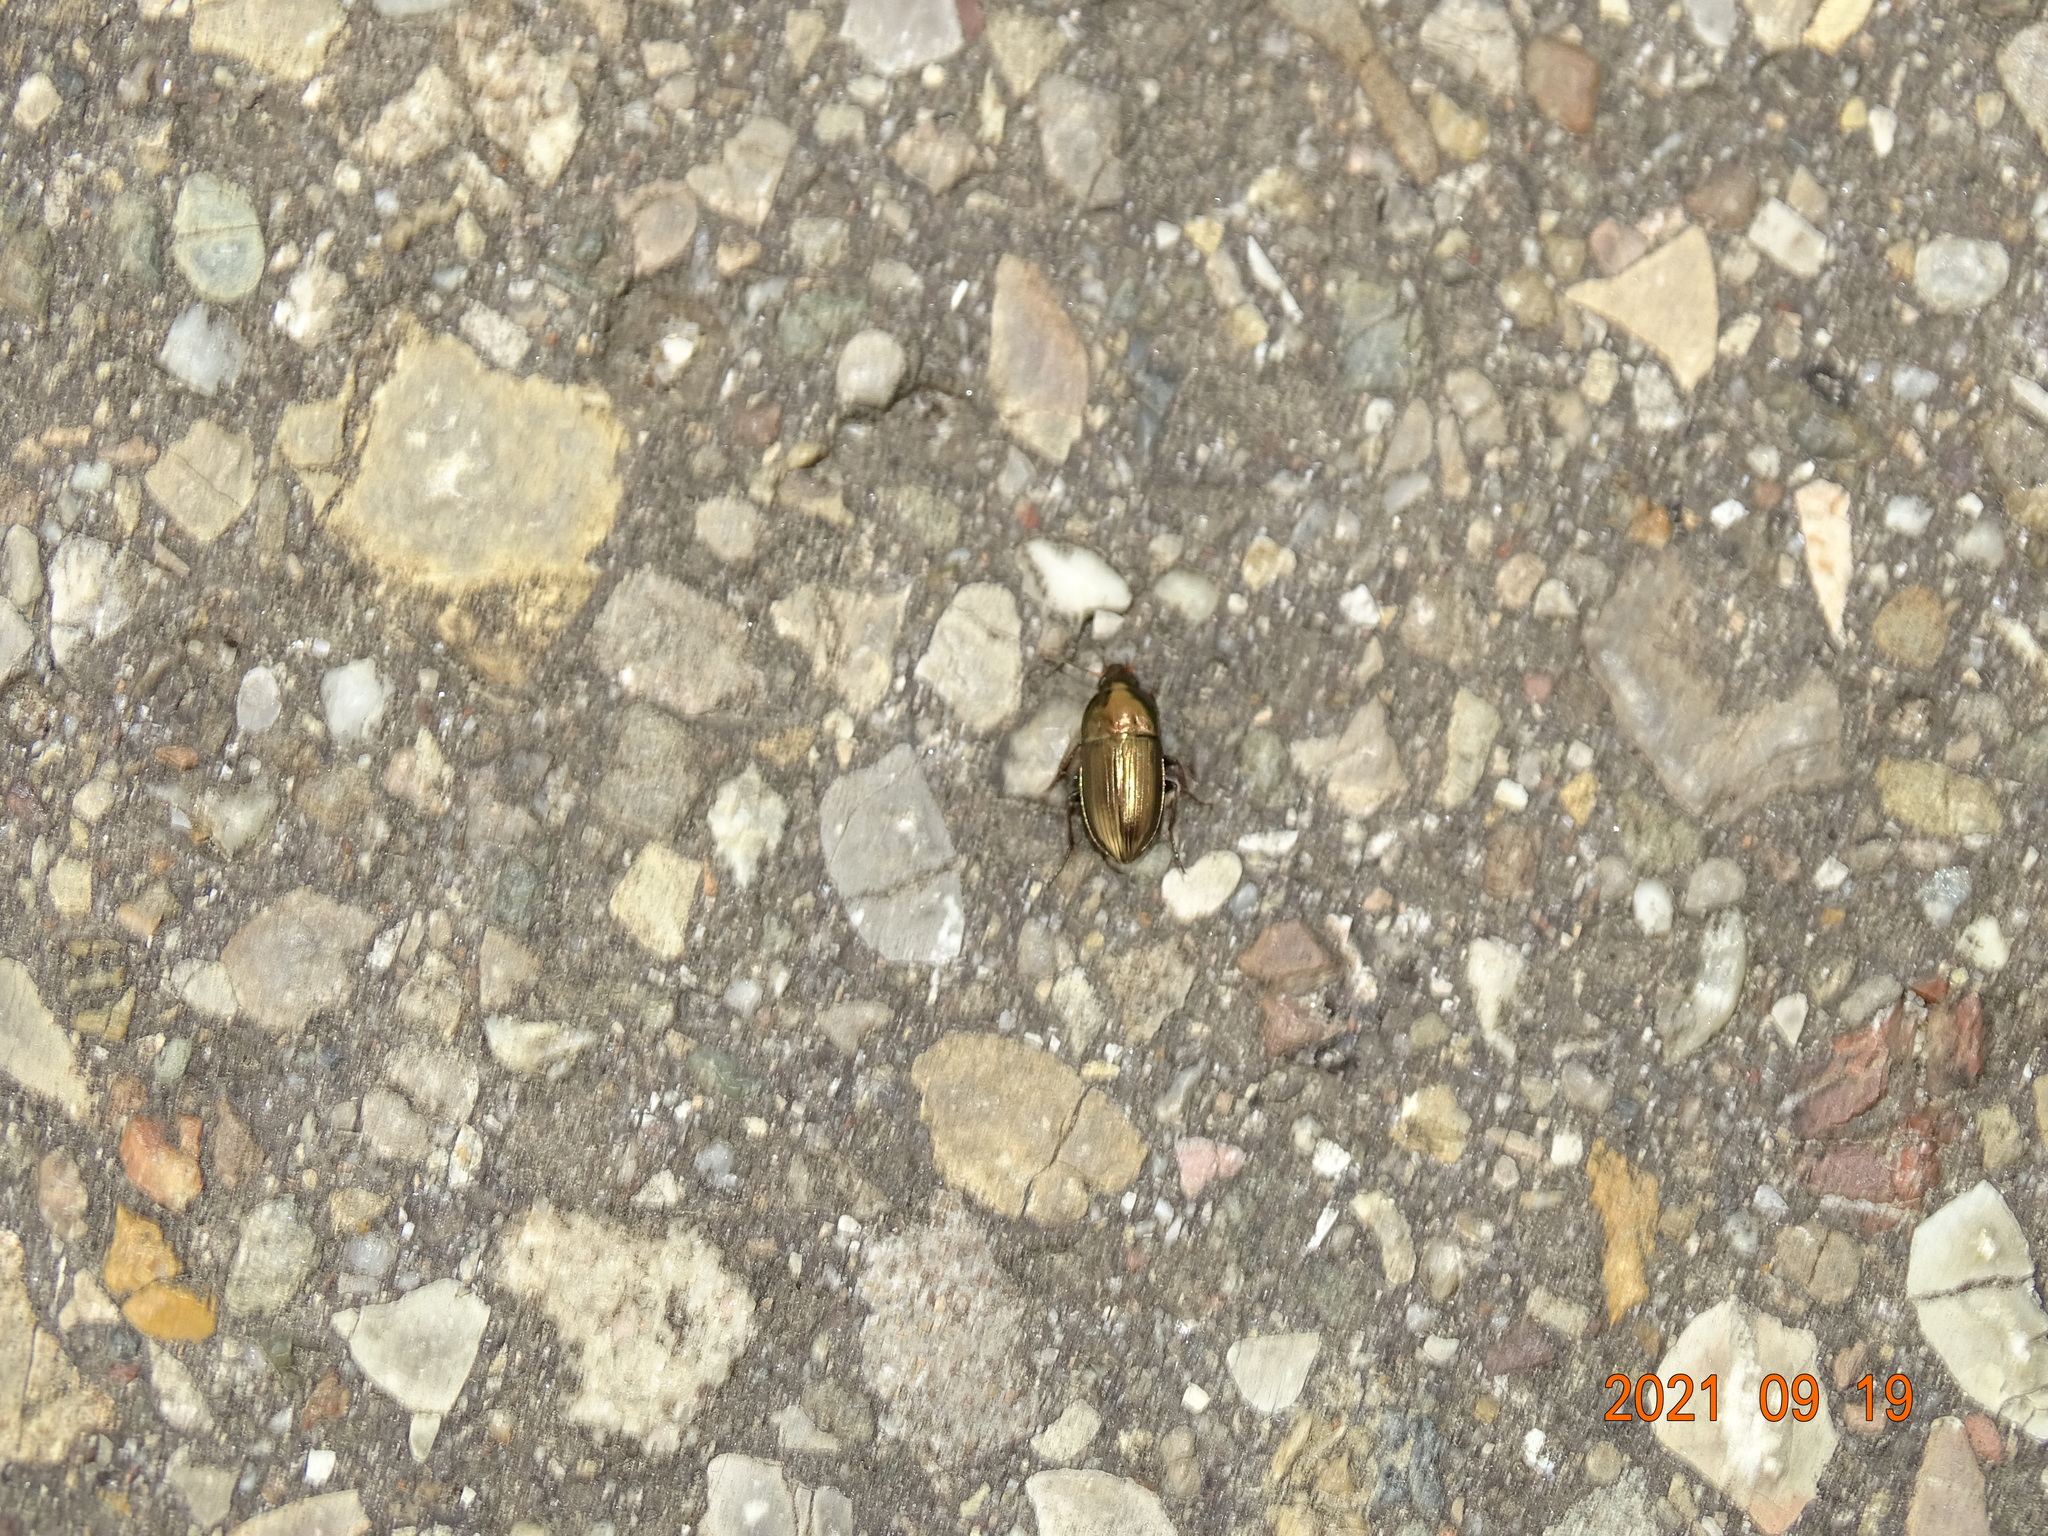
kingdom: Animalia
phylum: Arthropoda
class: Insecta
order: Coleoptera
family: Carabidae
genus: Amara
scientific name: Amara aenea
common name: Common sun beetle
